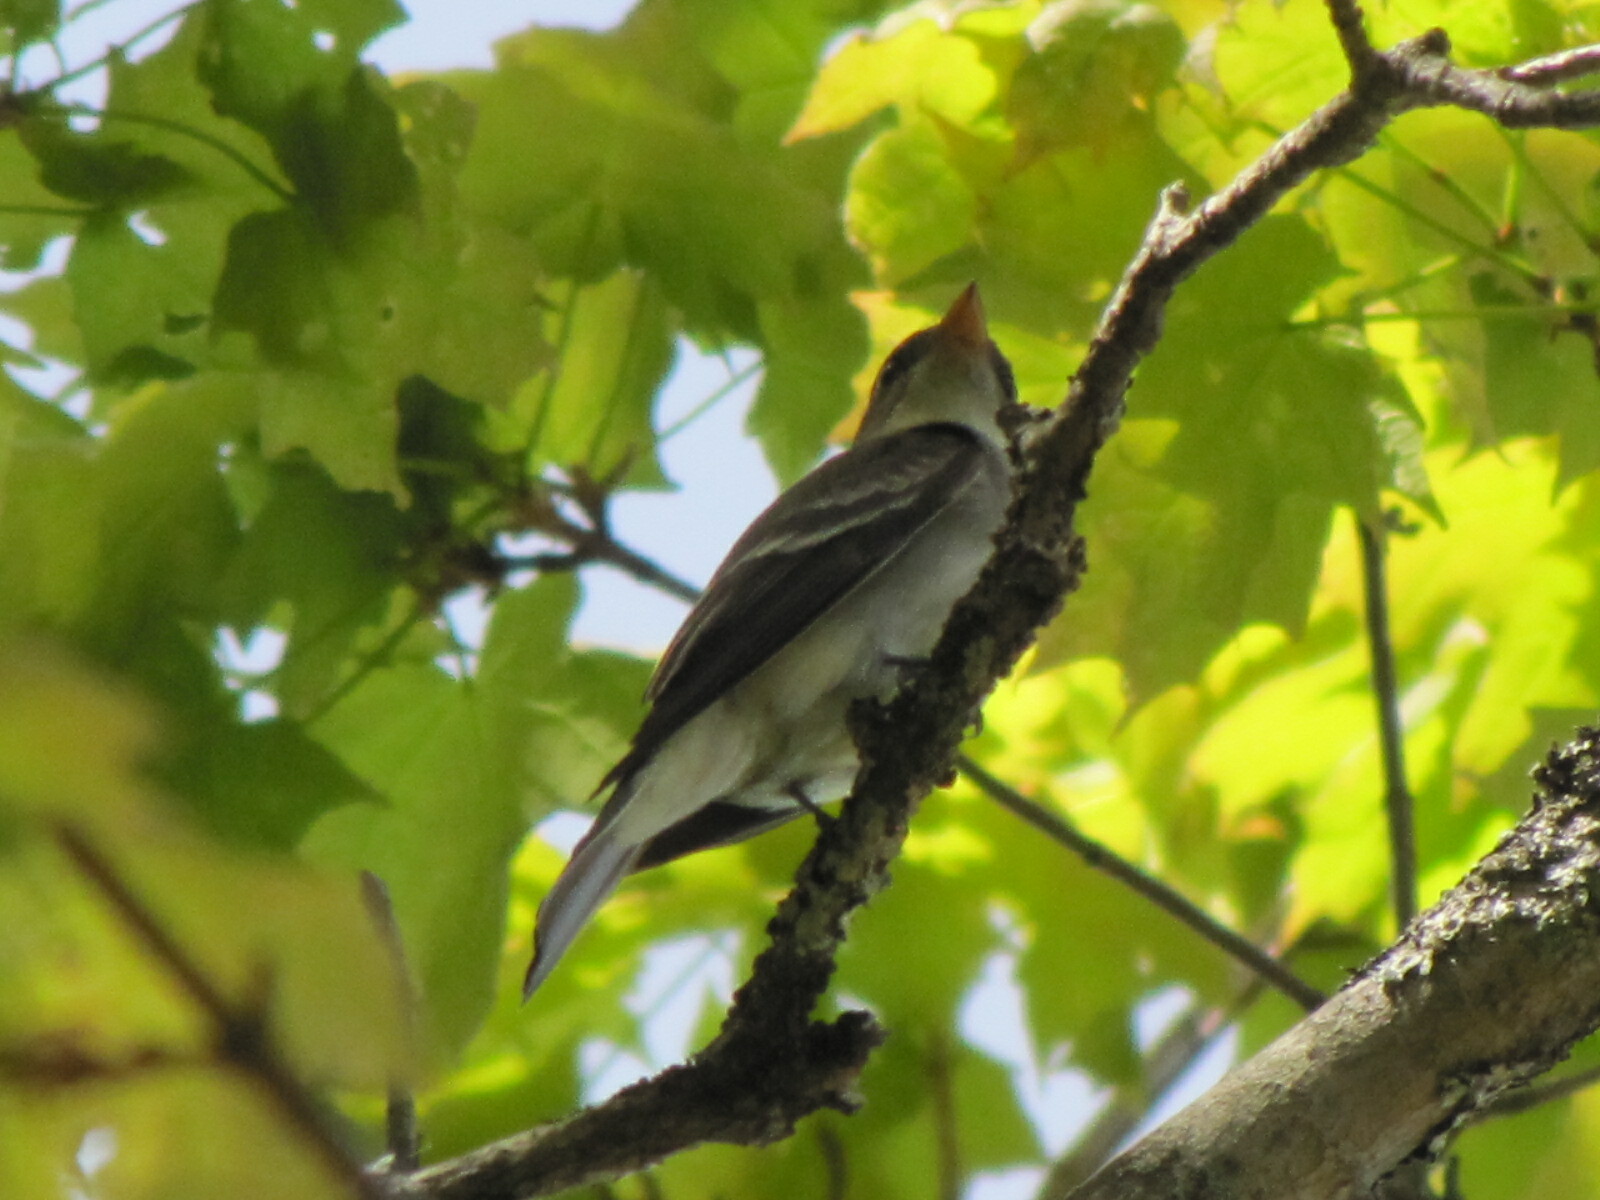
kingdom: Animalia
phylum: Chordata
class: Aves
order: Passeriformes
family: Tyrannidae
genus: Contopus
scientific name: Contopus virens
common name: Eastern wood-pewee
